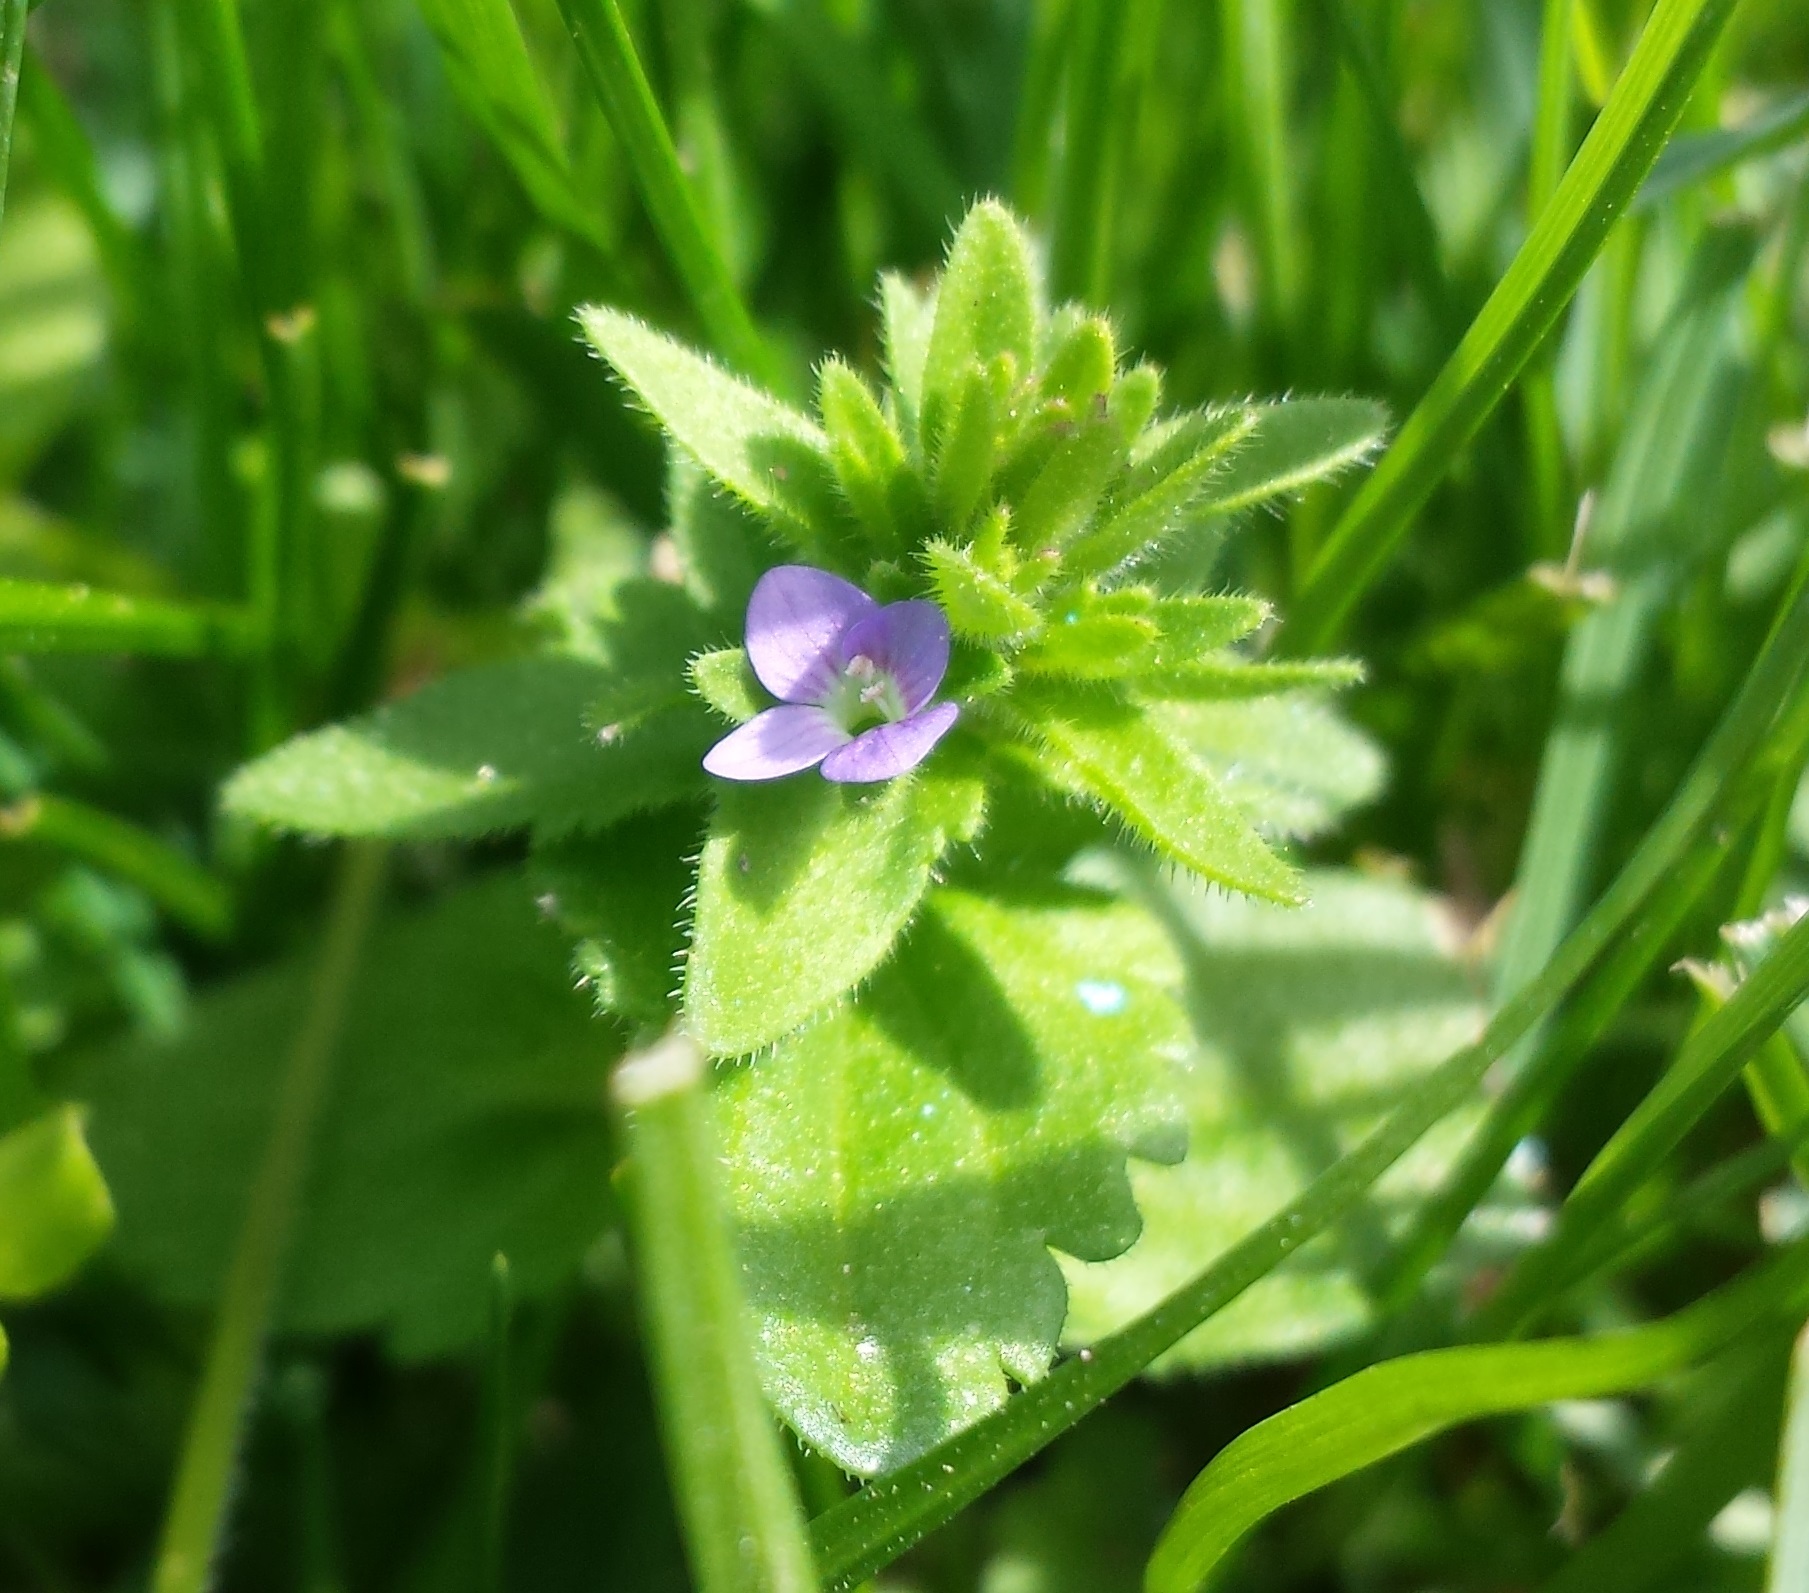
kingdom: Plantae
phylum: Tracheophyta
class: Magnoliopsida
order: Lamiales
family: Plantaginaceae
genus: Veronica
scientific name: Veronica arvensis
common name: Corn speedwell
